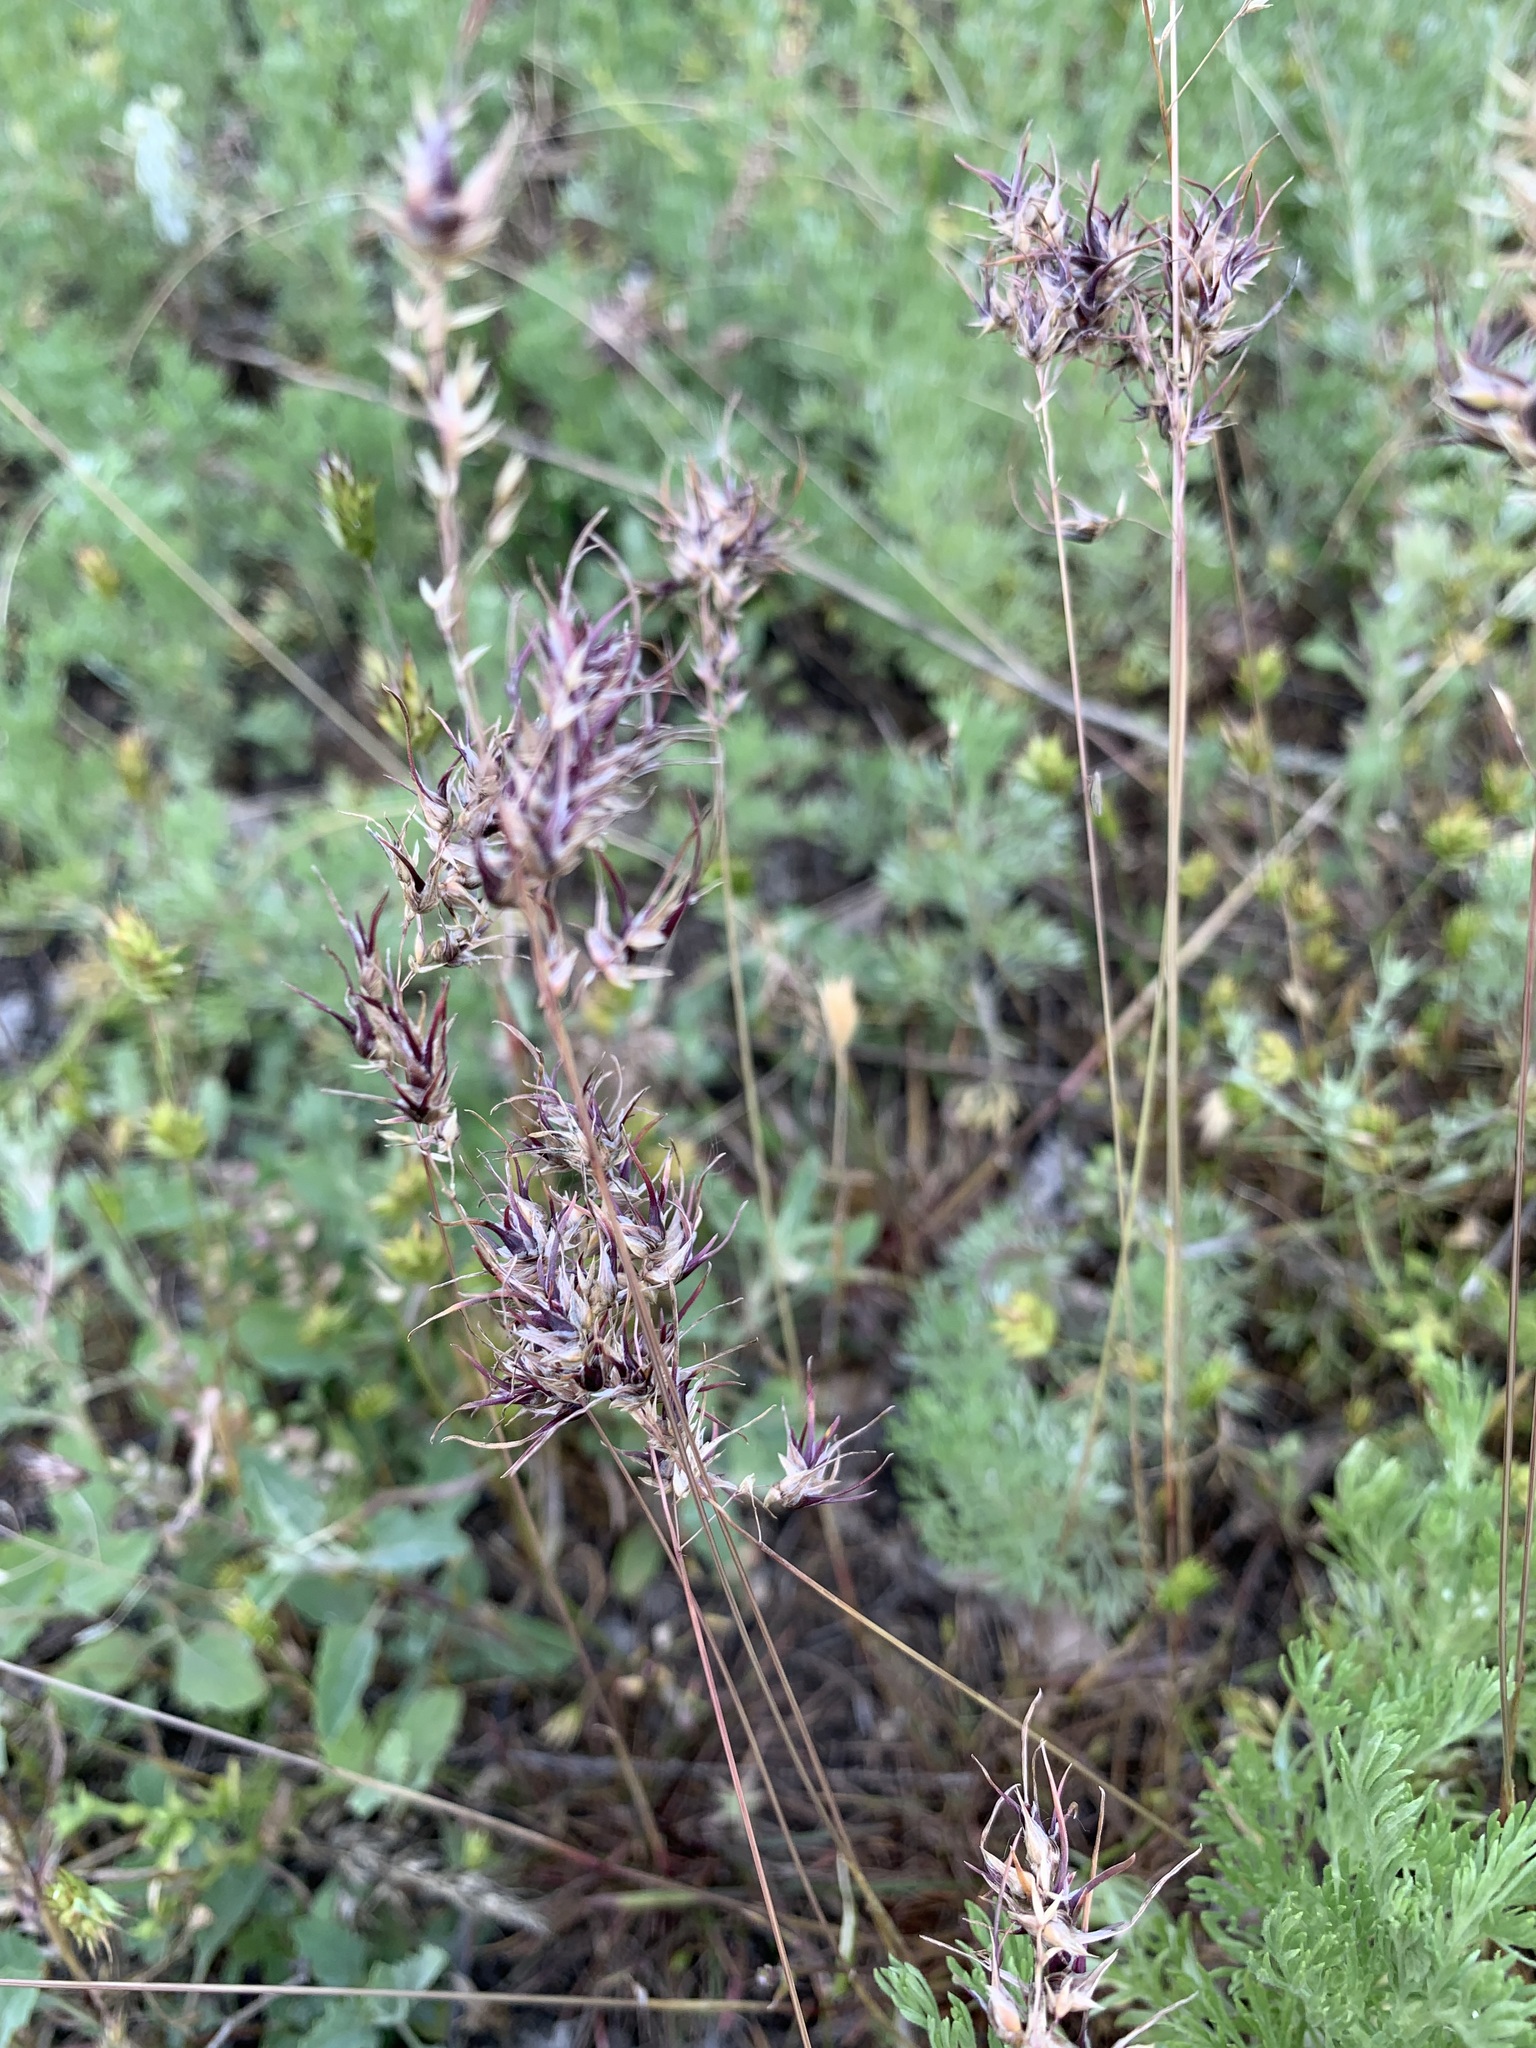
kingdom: Plantae
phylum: Tracheophyta
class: Liliopsida
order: Poales
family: Poaceae
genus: Poa
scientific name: Poa bulbosa
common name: Bulbous bluegrass
